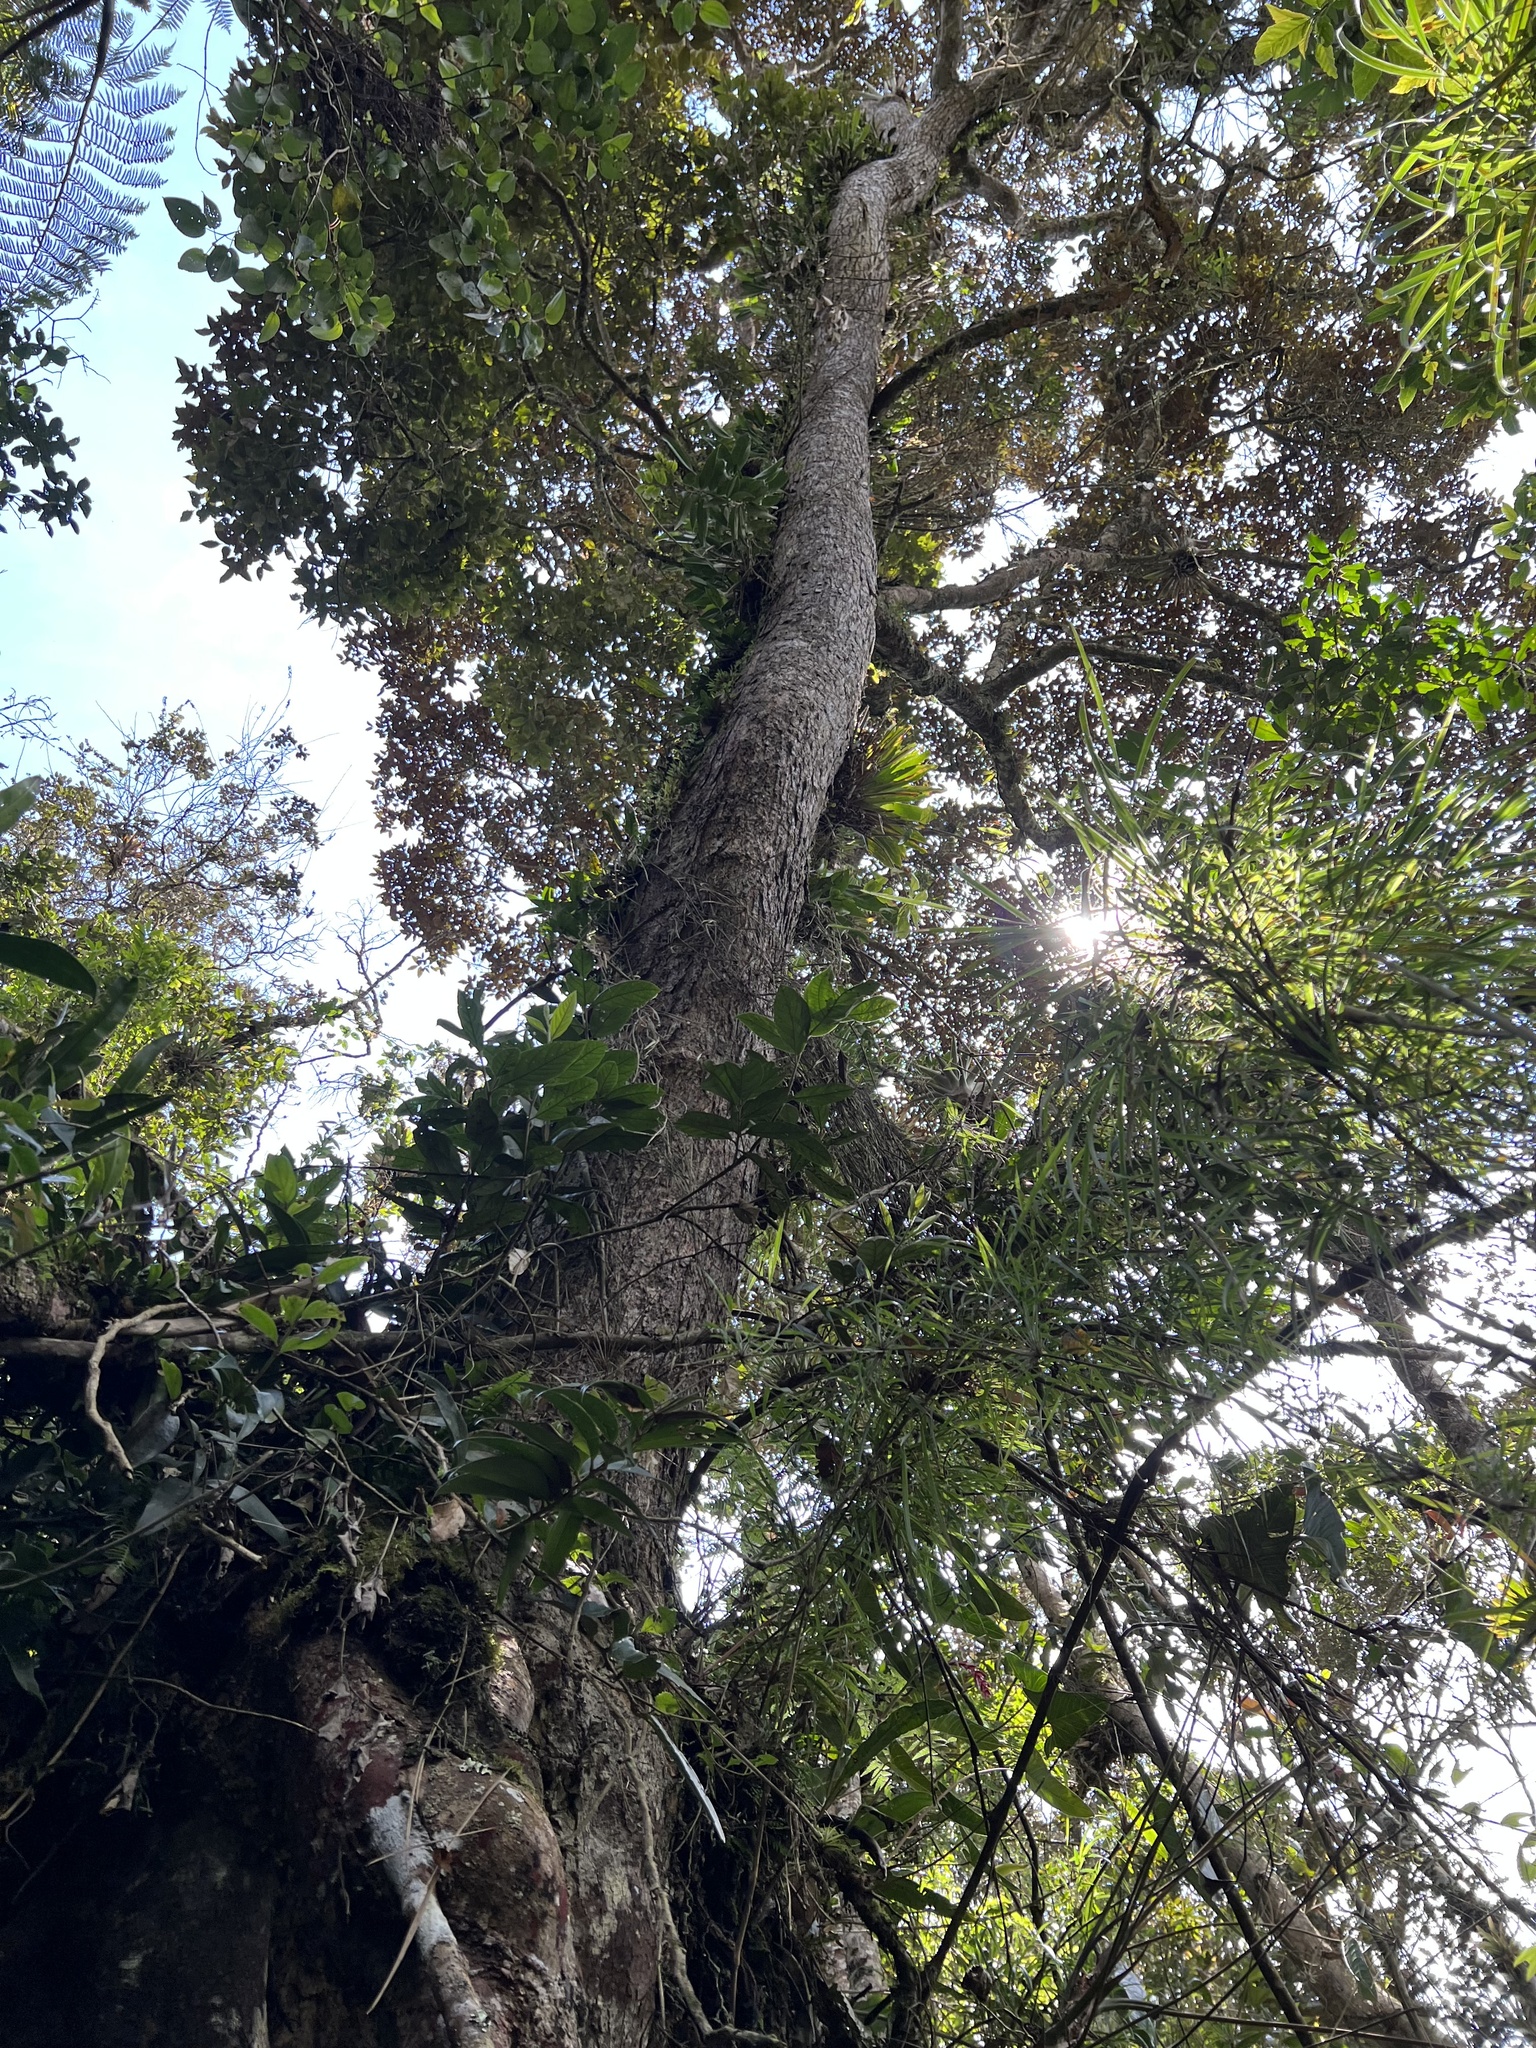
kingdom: Plantae
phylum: Tracheophyta
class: Magnoliopsida
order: Laurales
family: Lauraceae
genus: Ocotea
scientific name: Ocotea pedicellata
